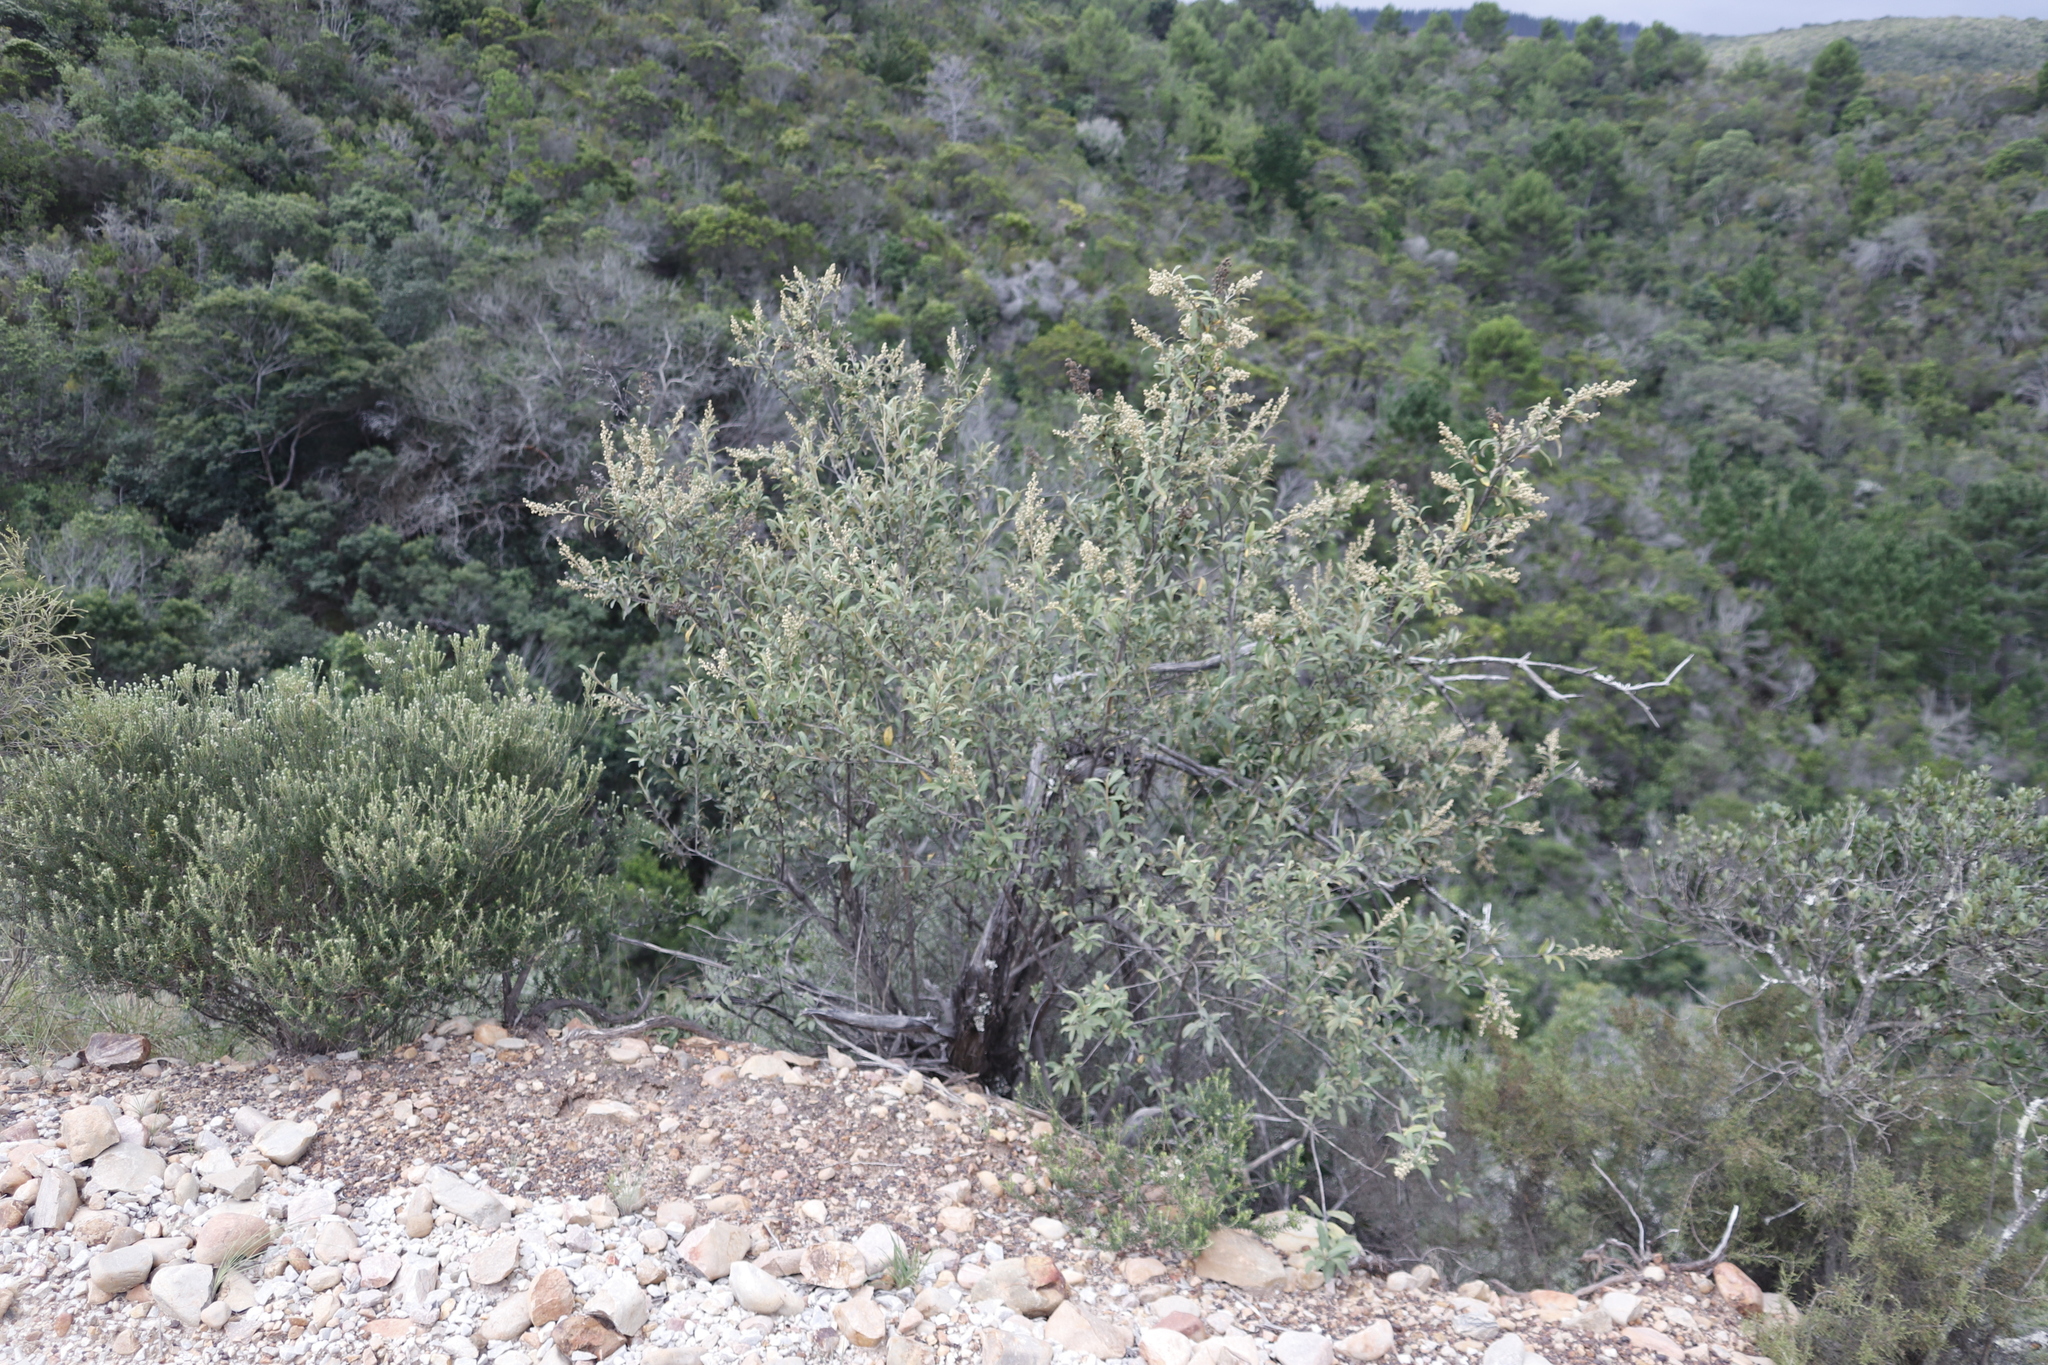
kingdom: Plantae
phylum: Tracheophyta
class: Magnoliopsida
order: Asterales
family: Asteraceae
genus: Tarchonanthus
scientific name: Tarchonanthus littoralis
